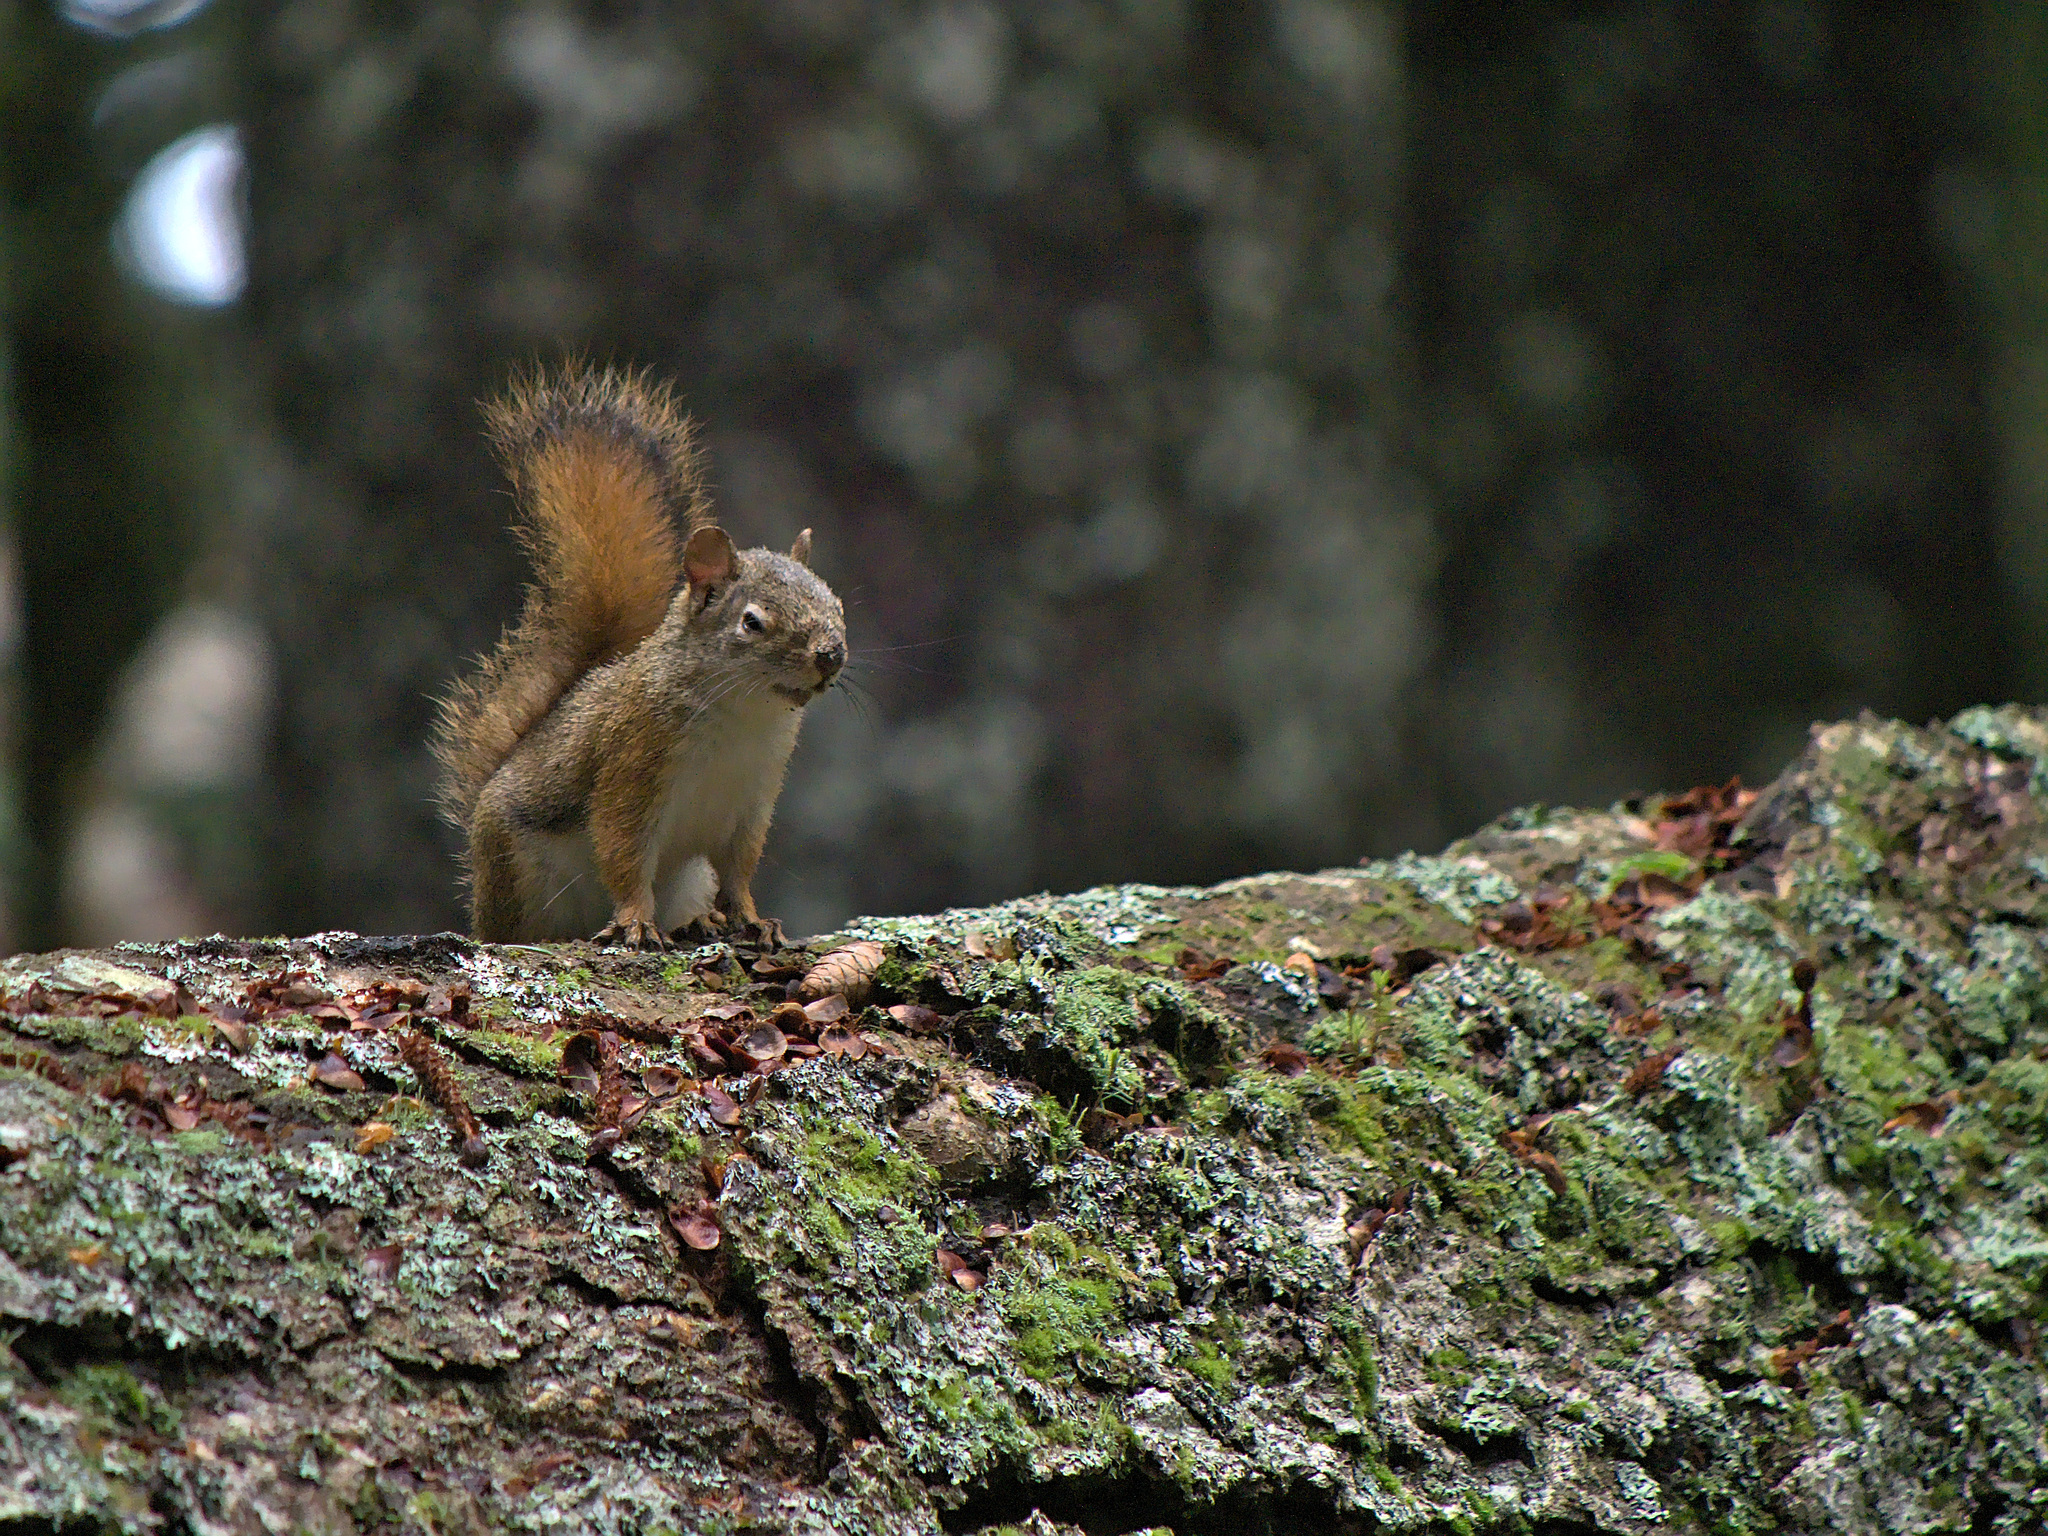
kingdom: Animalia
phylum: Chordata
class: Mammalia
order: Rodentia
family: Sciuridae
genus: Tamiasciurus
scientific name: Tamiasciurus hudsonicus
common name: Red squirrel
